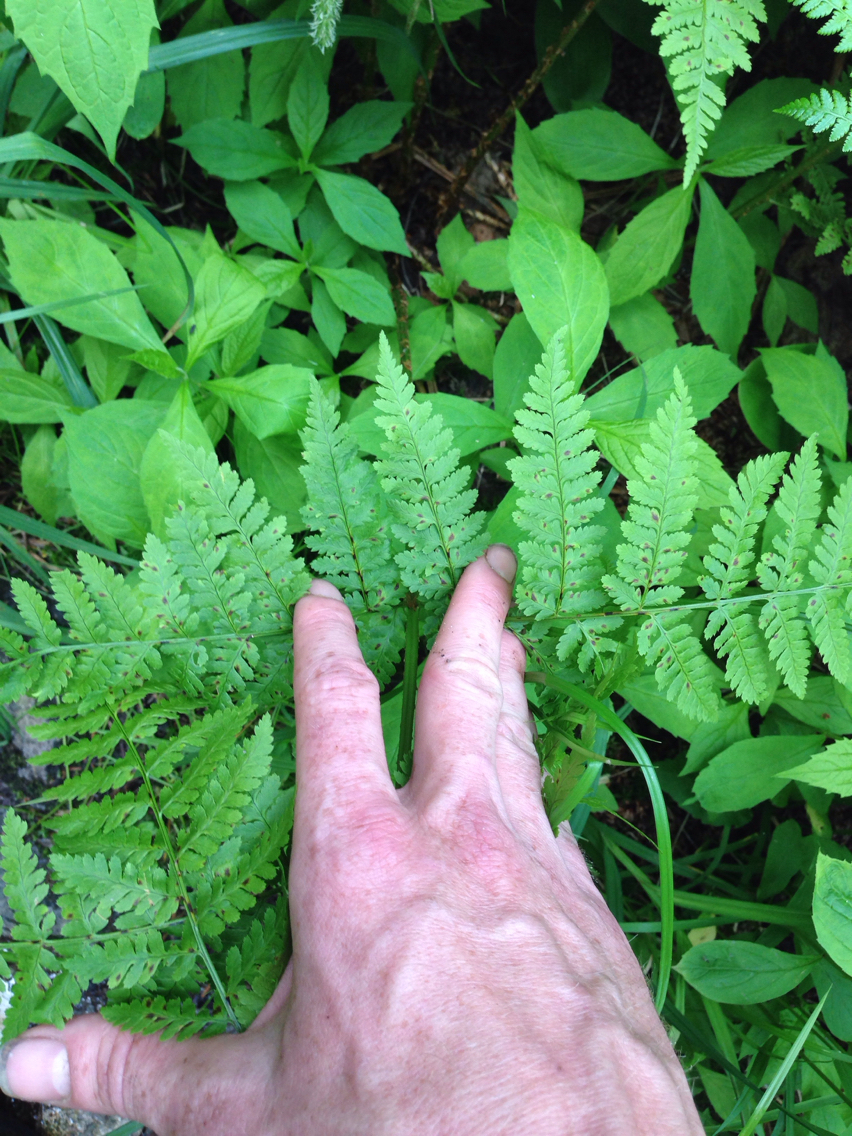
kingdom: Plantae
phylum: Tracheophyta
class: Polypodiopsida
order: Polypodiales
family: Dryopteridaceae
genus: Dryopteris
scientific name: Dryopteris campyloptera
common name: Mountain wood fern
